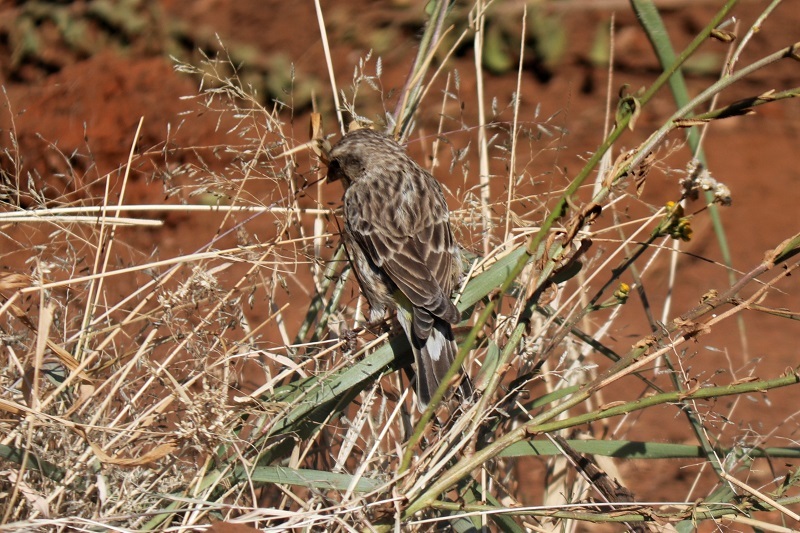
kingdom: Animalia
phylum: Chordata
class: Aves
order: Passeriformes
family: Fringillidae
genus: Crithagra
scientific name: Crithagra atrogularis
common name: Black-throated canary
